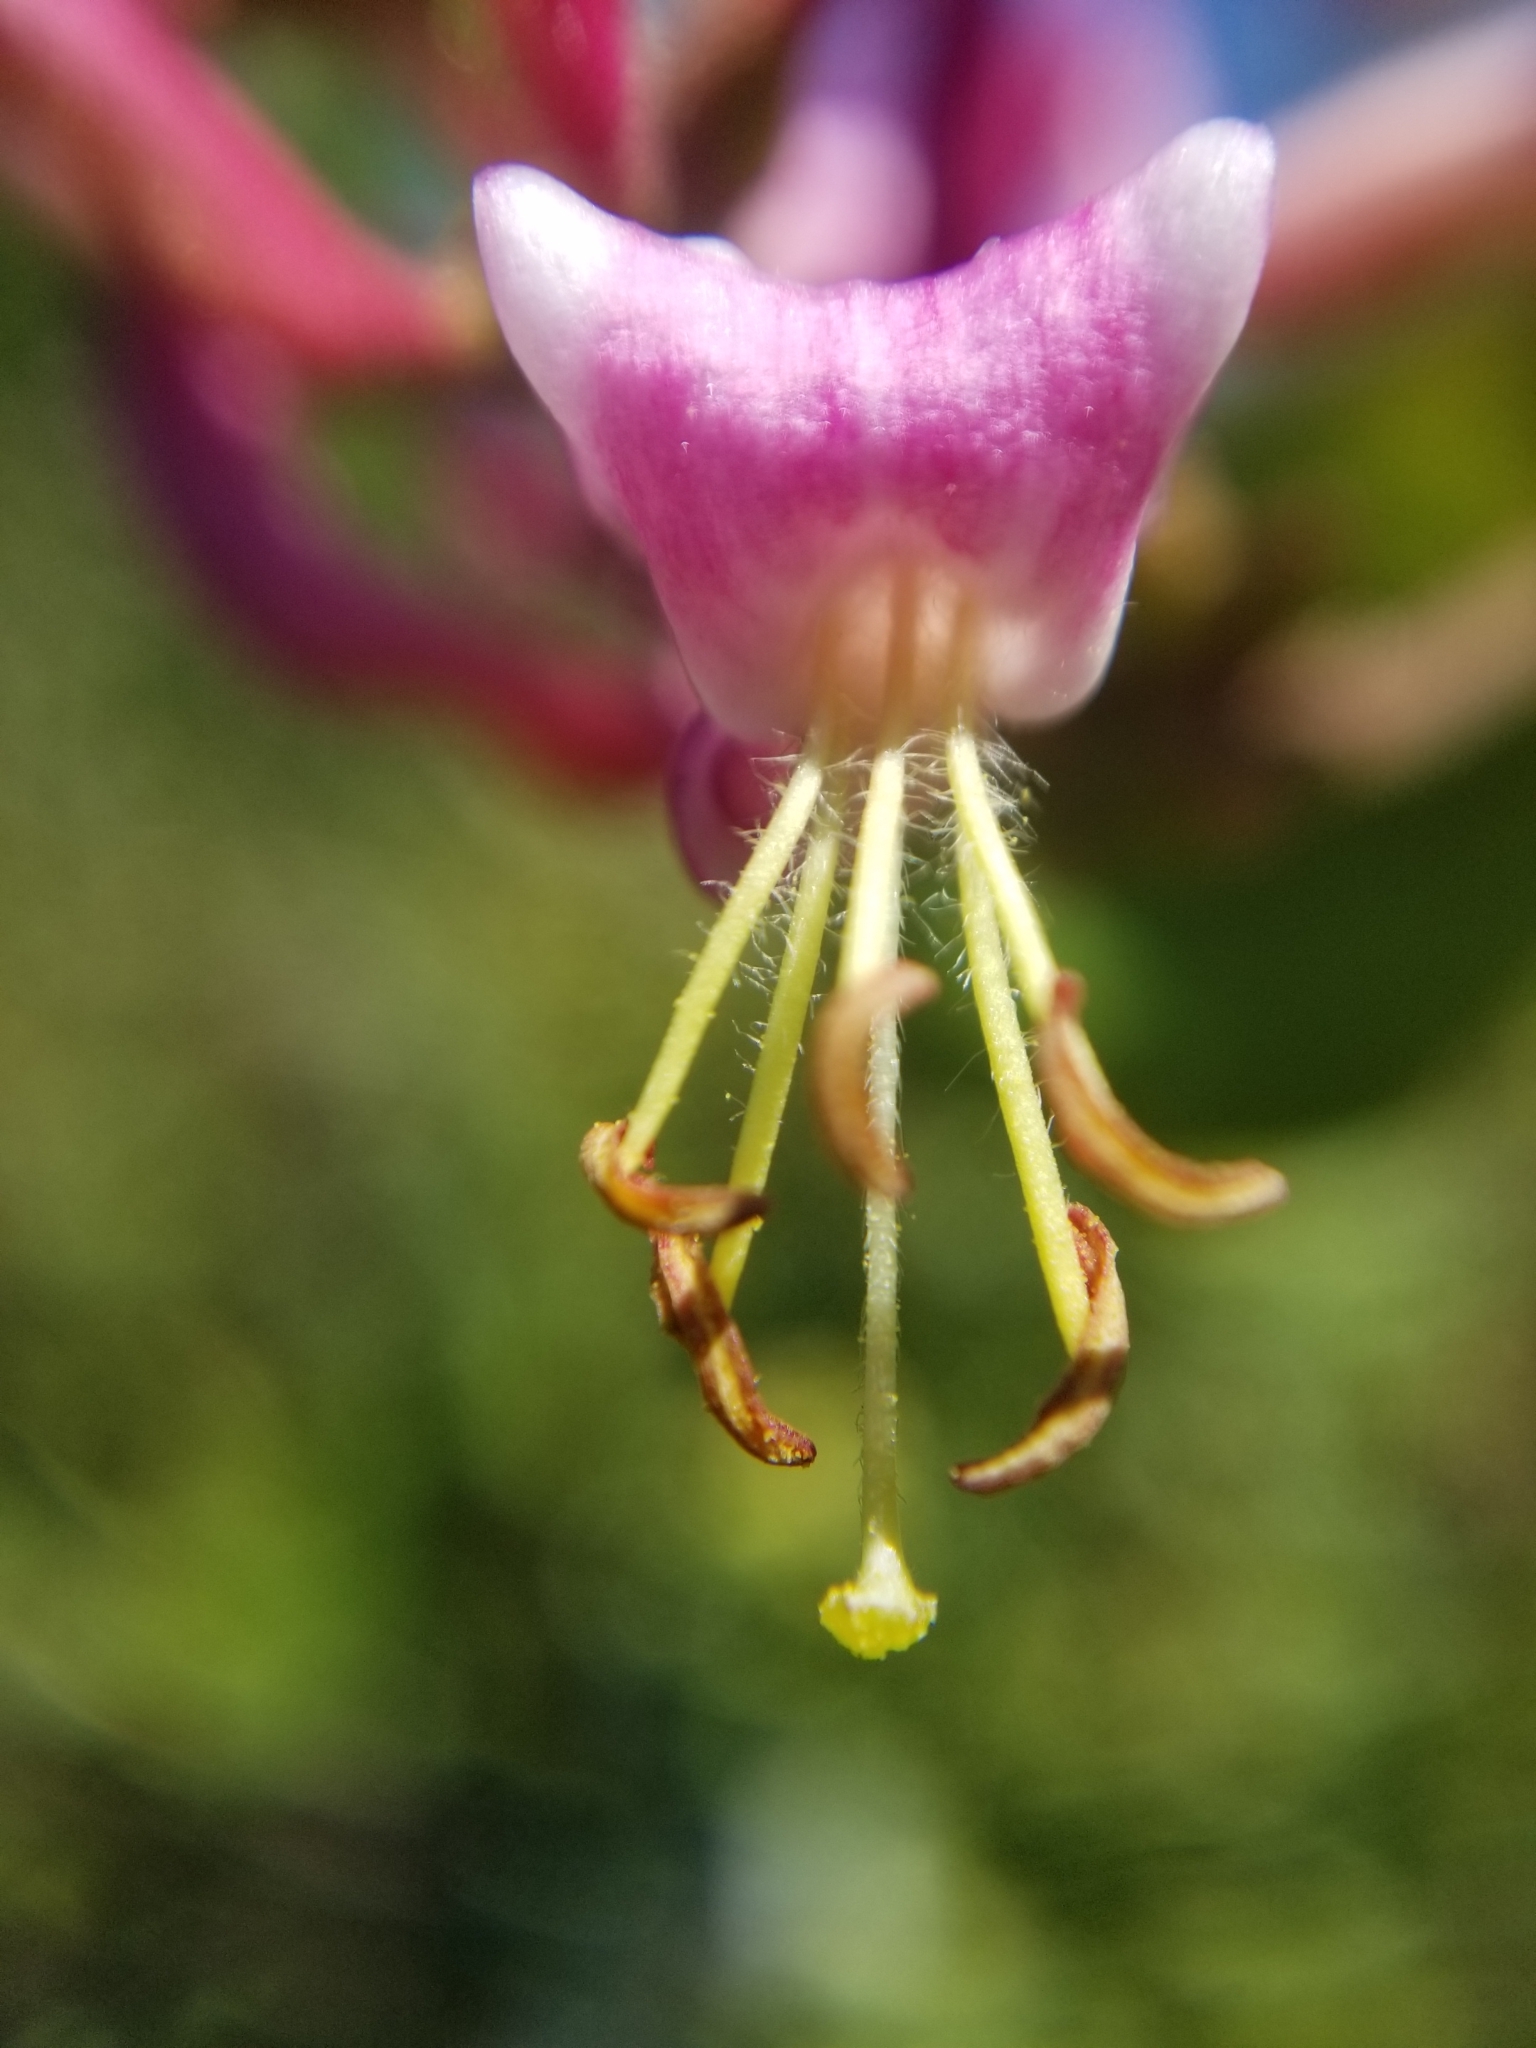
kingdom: Plantae
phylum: Tracheophyta
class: Magnoliopsida
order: Dipsacales
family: Caprifoliaceae
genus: Lonicera
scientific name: Lonicera hispidula
